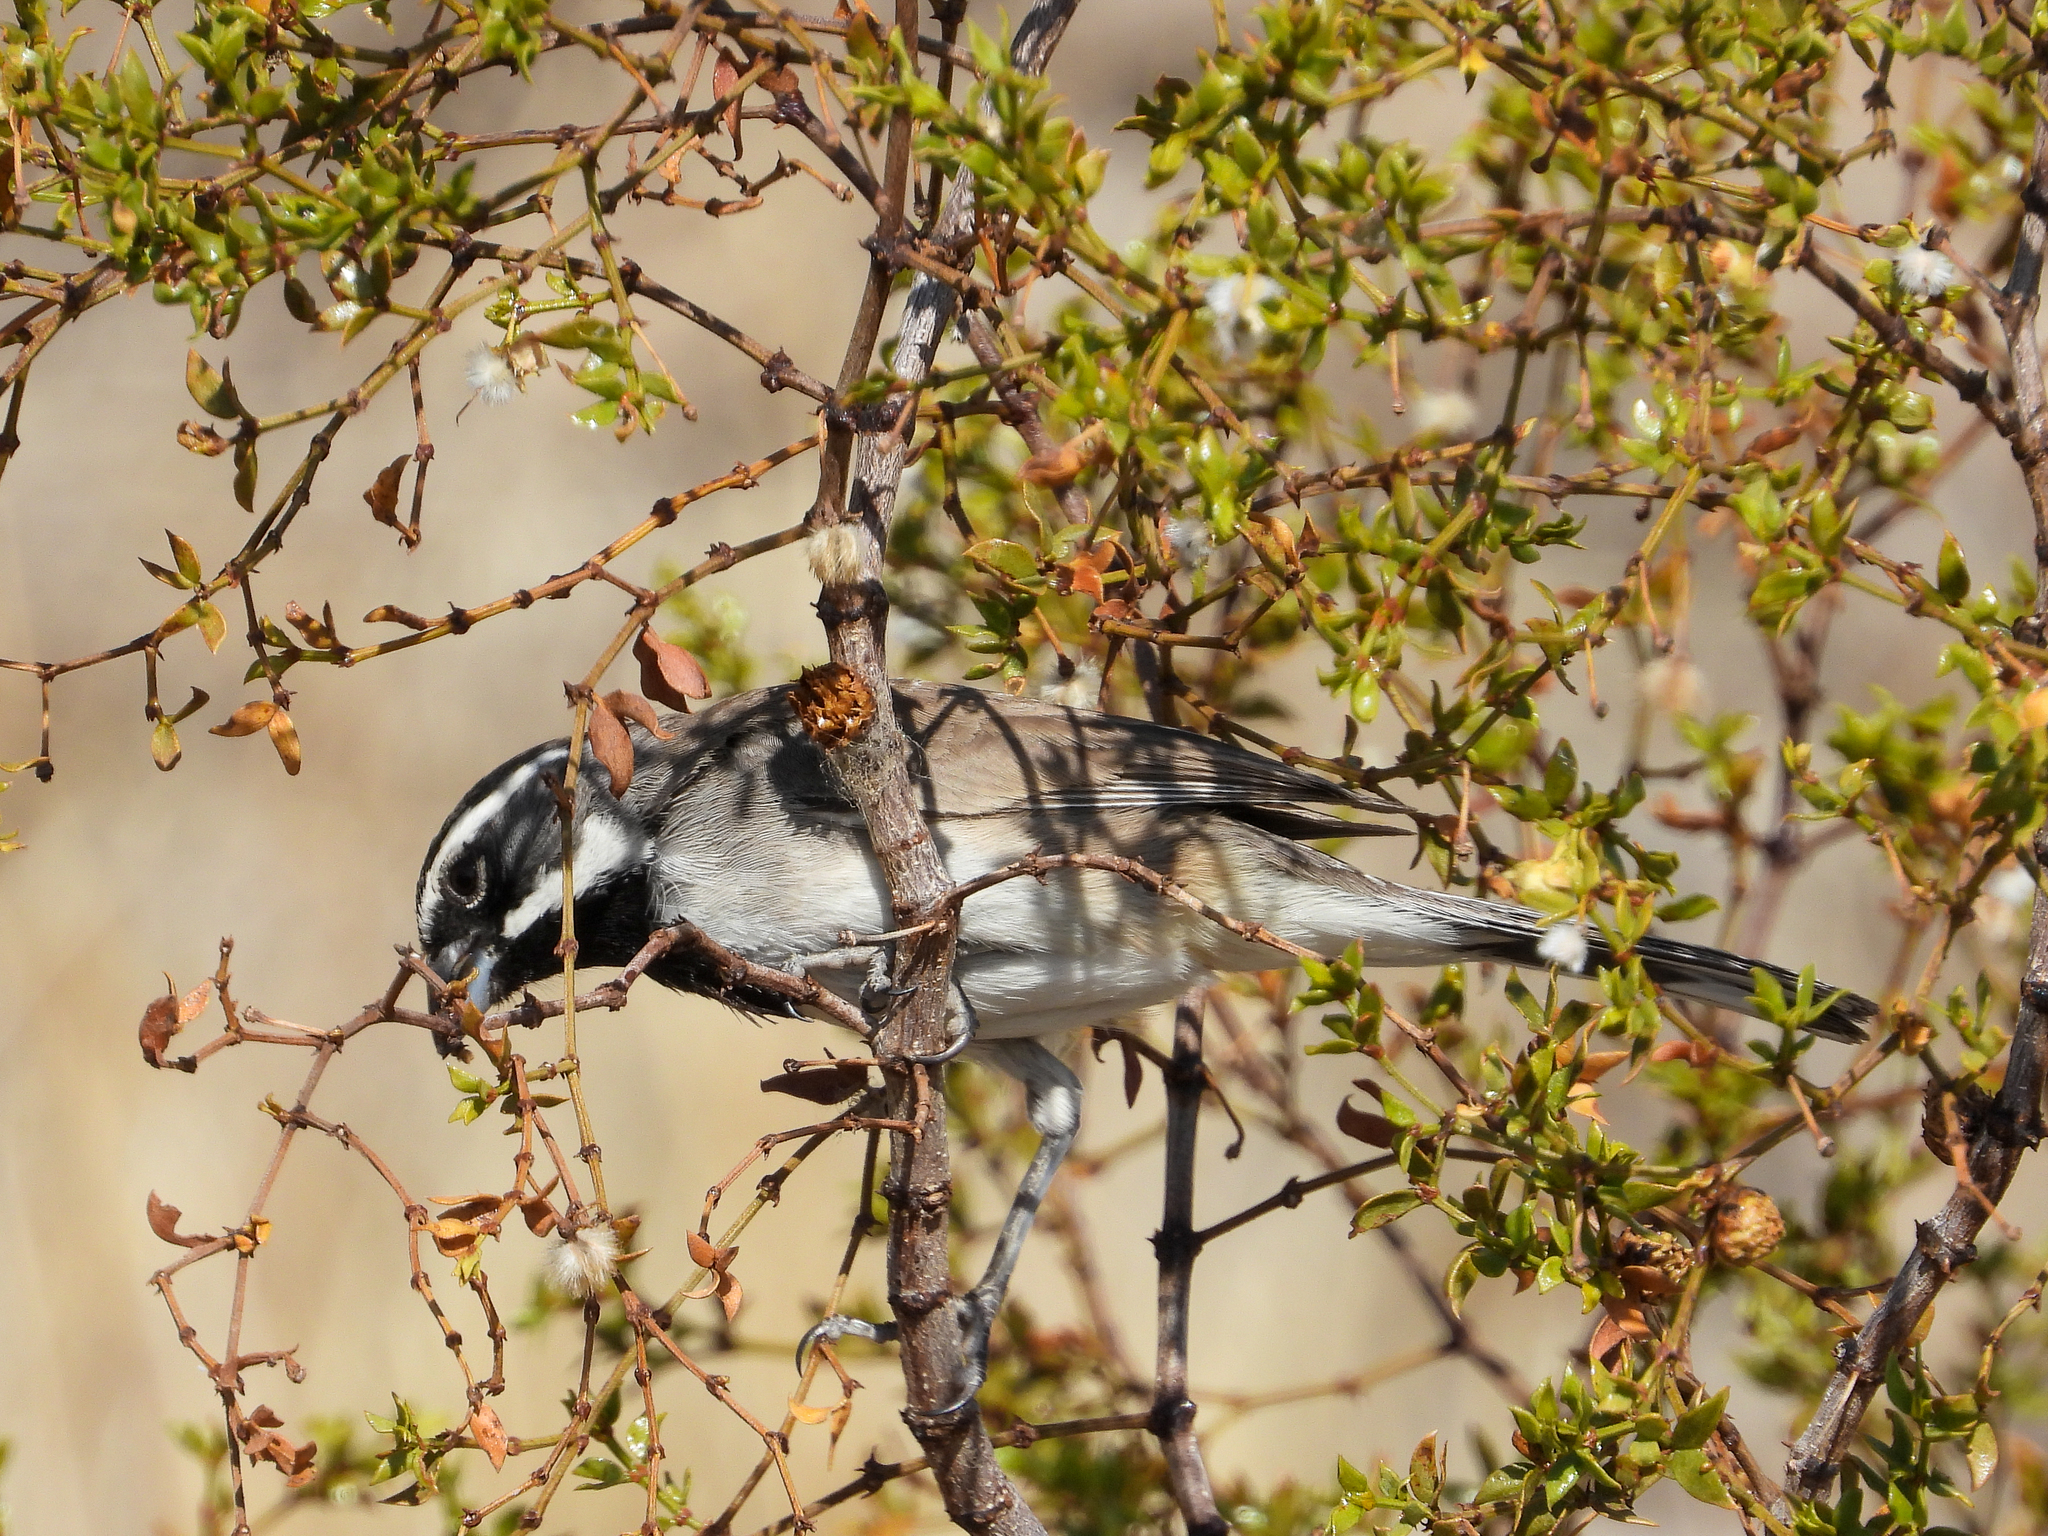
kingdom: Animalia
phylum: Chordata
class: Aves
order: Passeriformes
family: Passerellidae
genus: Amphispiza
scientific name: Amphispiza bilineata
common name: Black-throated sparrow
